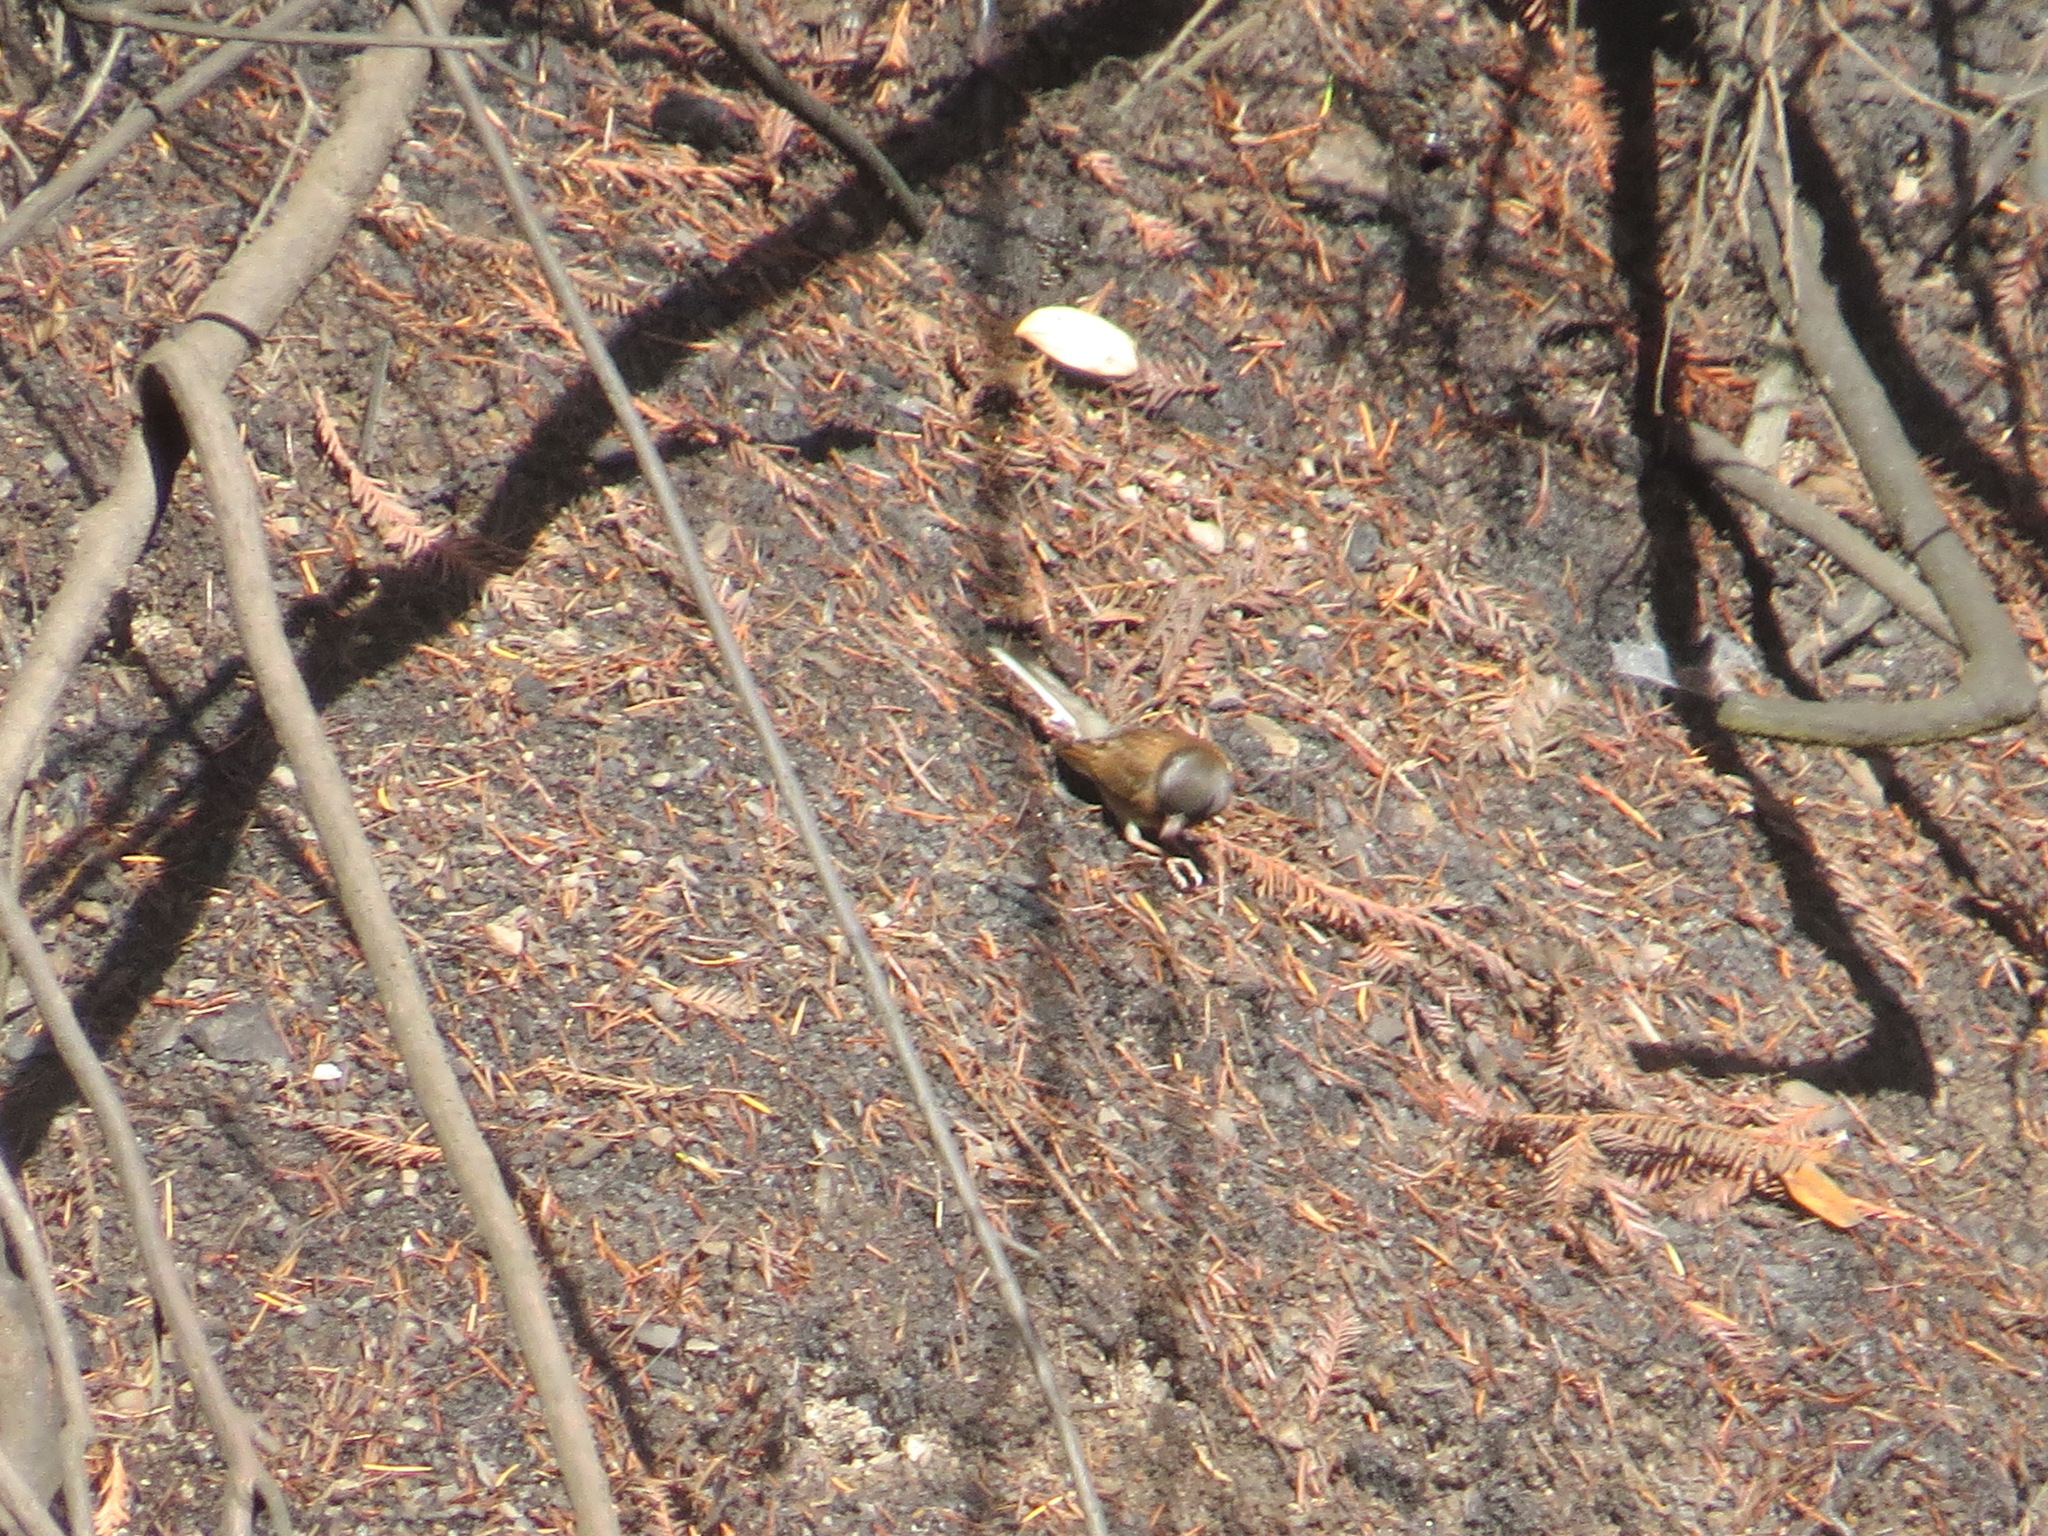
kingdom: Animalia
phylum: Chordata
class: Aves
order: Passeriformes
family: Passerellidae
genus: Junco
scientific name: Junco hyemalis
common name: Dark-eyed junco
